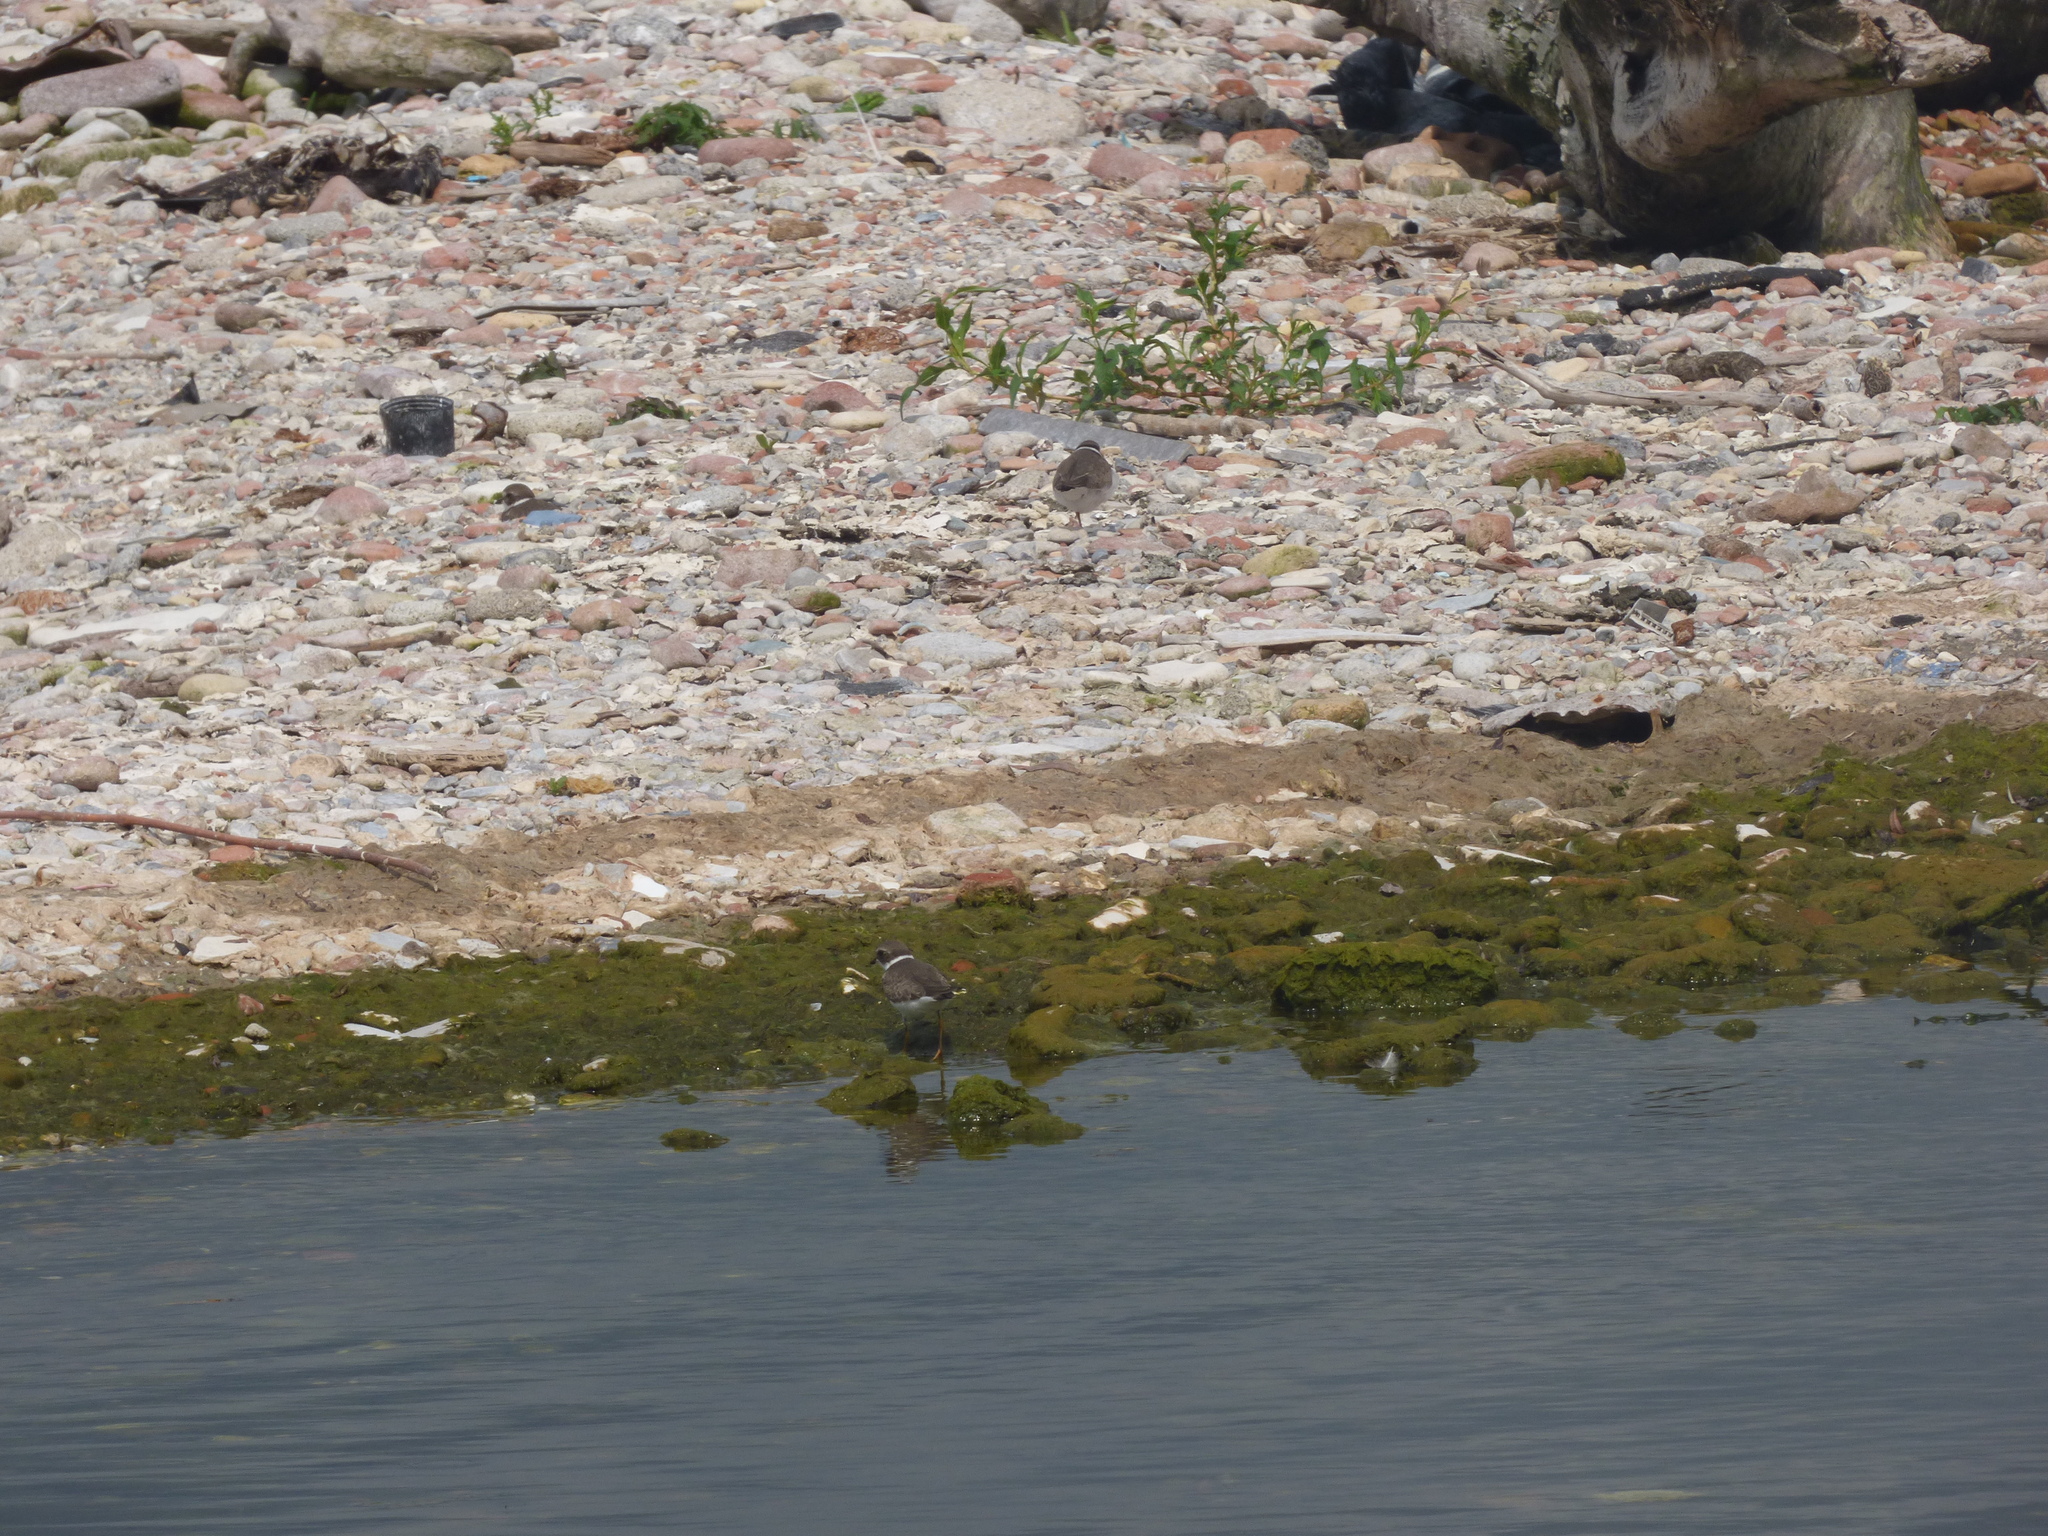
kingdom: Animalia
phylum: Chordata
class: Aves
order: Charadriiformes
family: Charadriidae
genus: Charadrius
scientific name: Charadrius semipalmatus
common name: Semipalmated plover
